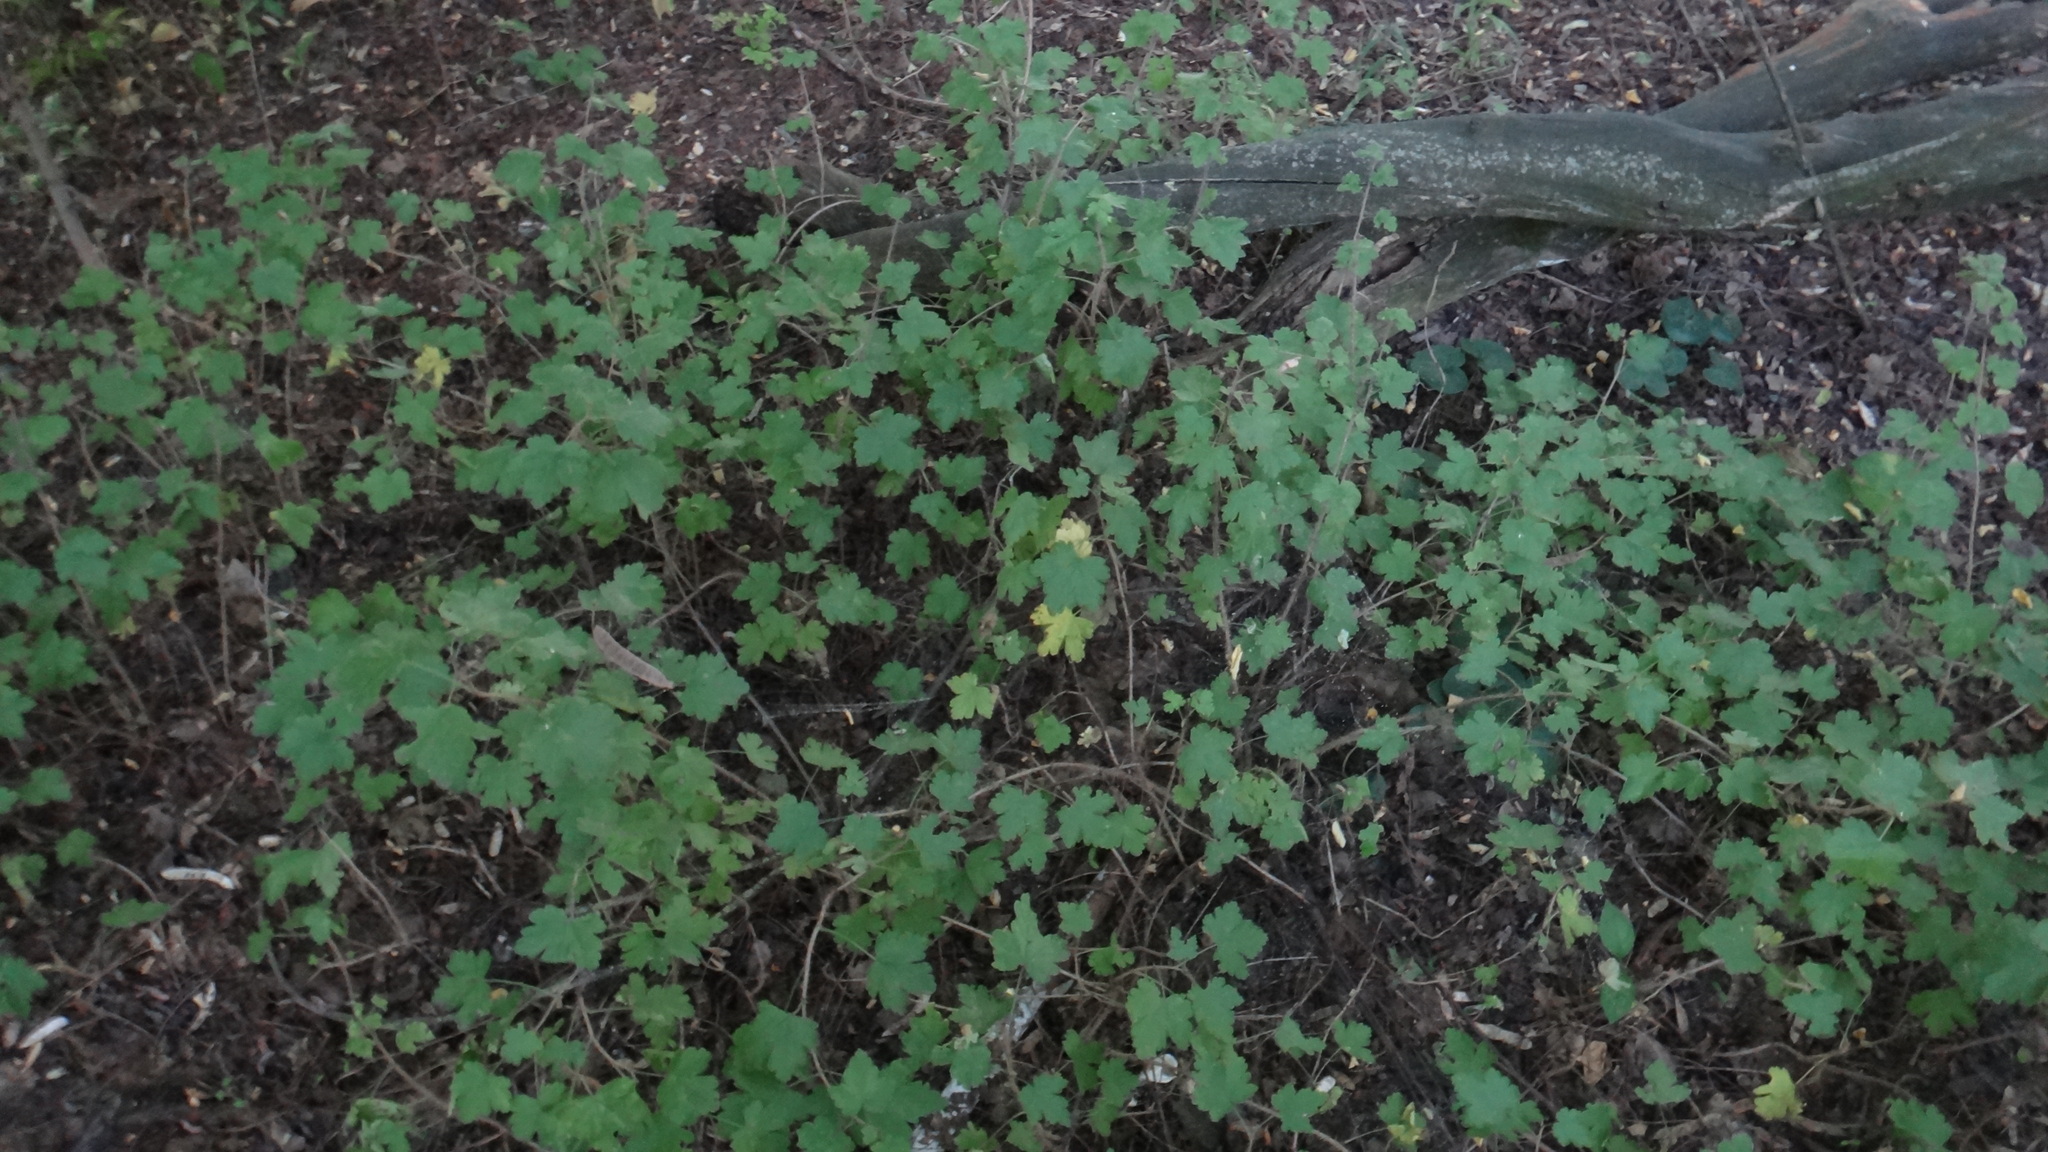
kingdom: Plantae
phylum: Tracheophyta
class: Magnoliopsida
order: Saxifragales
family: Grossulariaceae
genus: Ribes
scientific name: Ribes uva-crispa
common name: Gooseberry
